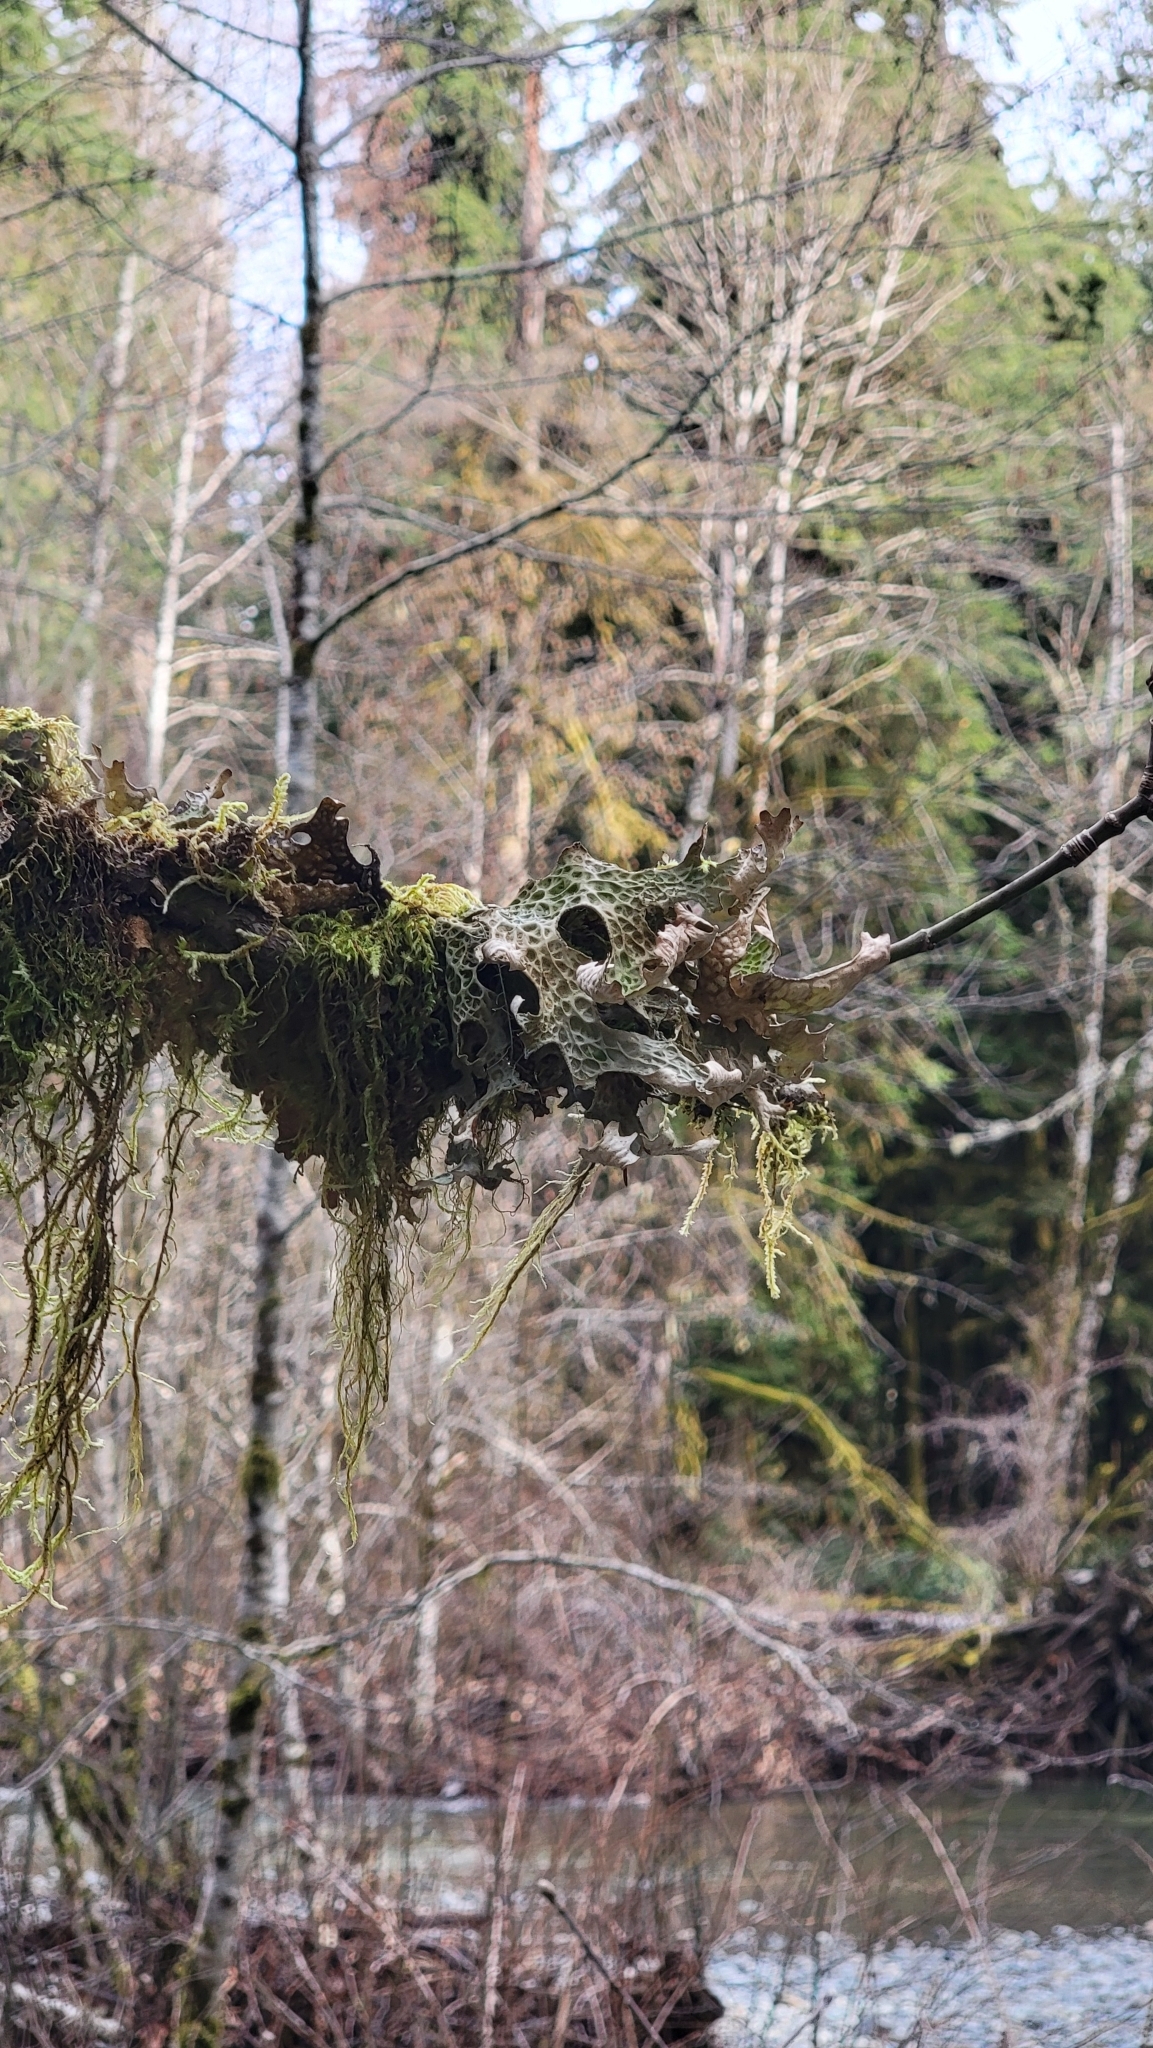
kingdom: Fungi
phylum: Ascomycota
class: Lecanoromycetes
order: Peltigerales
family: Lobariaceae
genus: Lobaria
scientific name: Lobaria pulmonaria
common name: Lungwort
